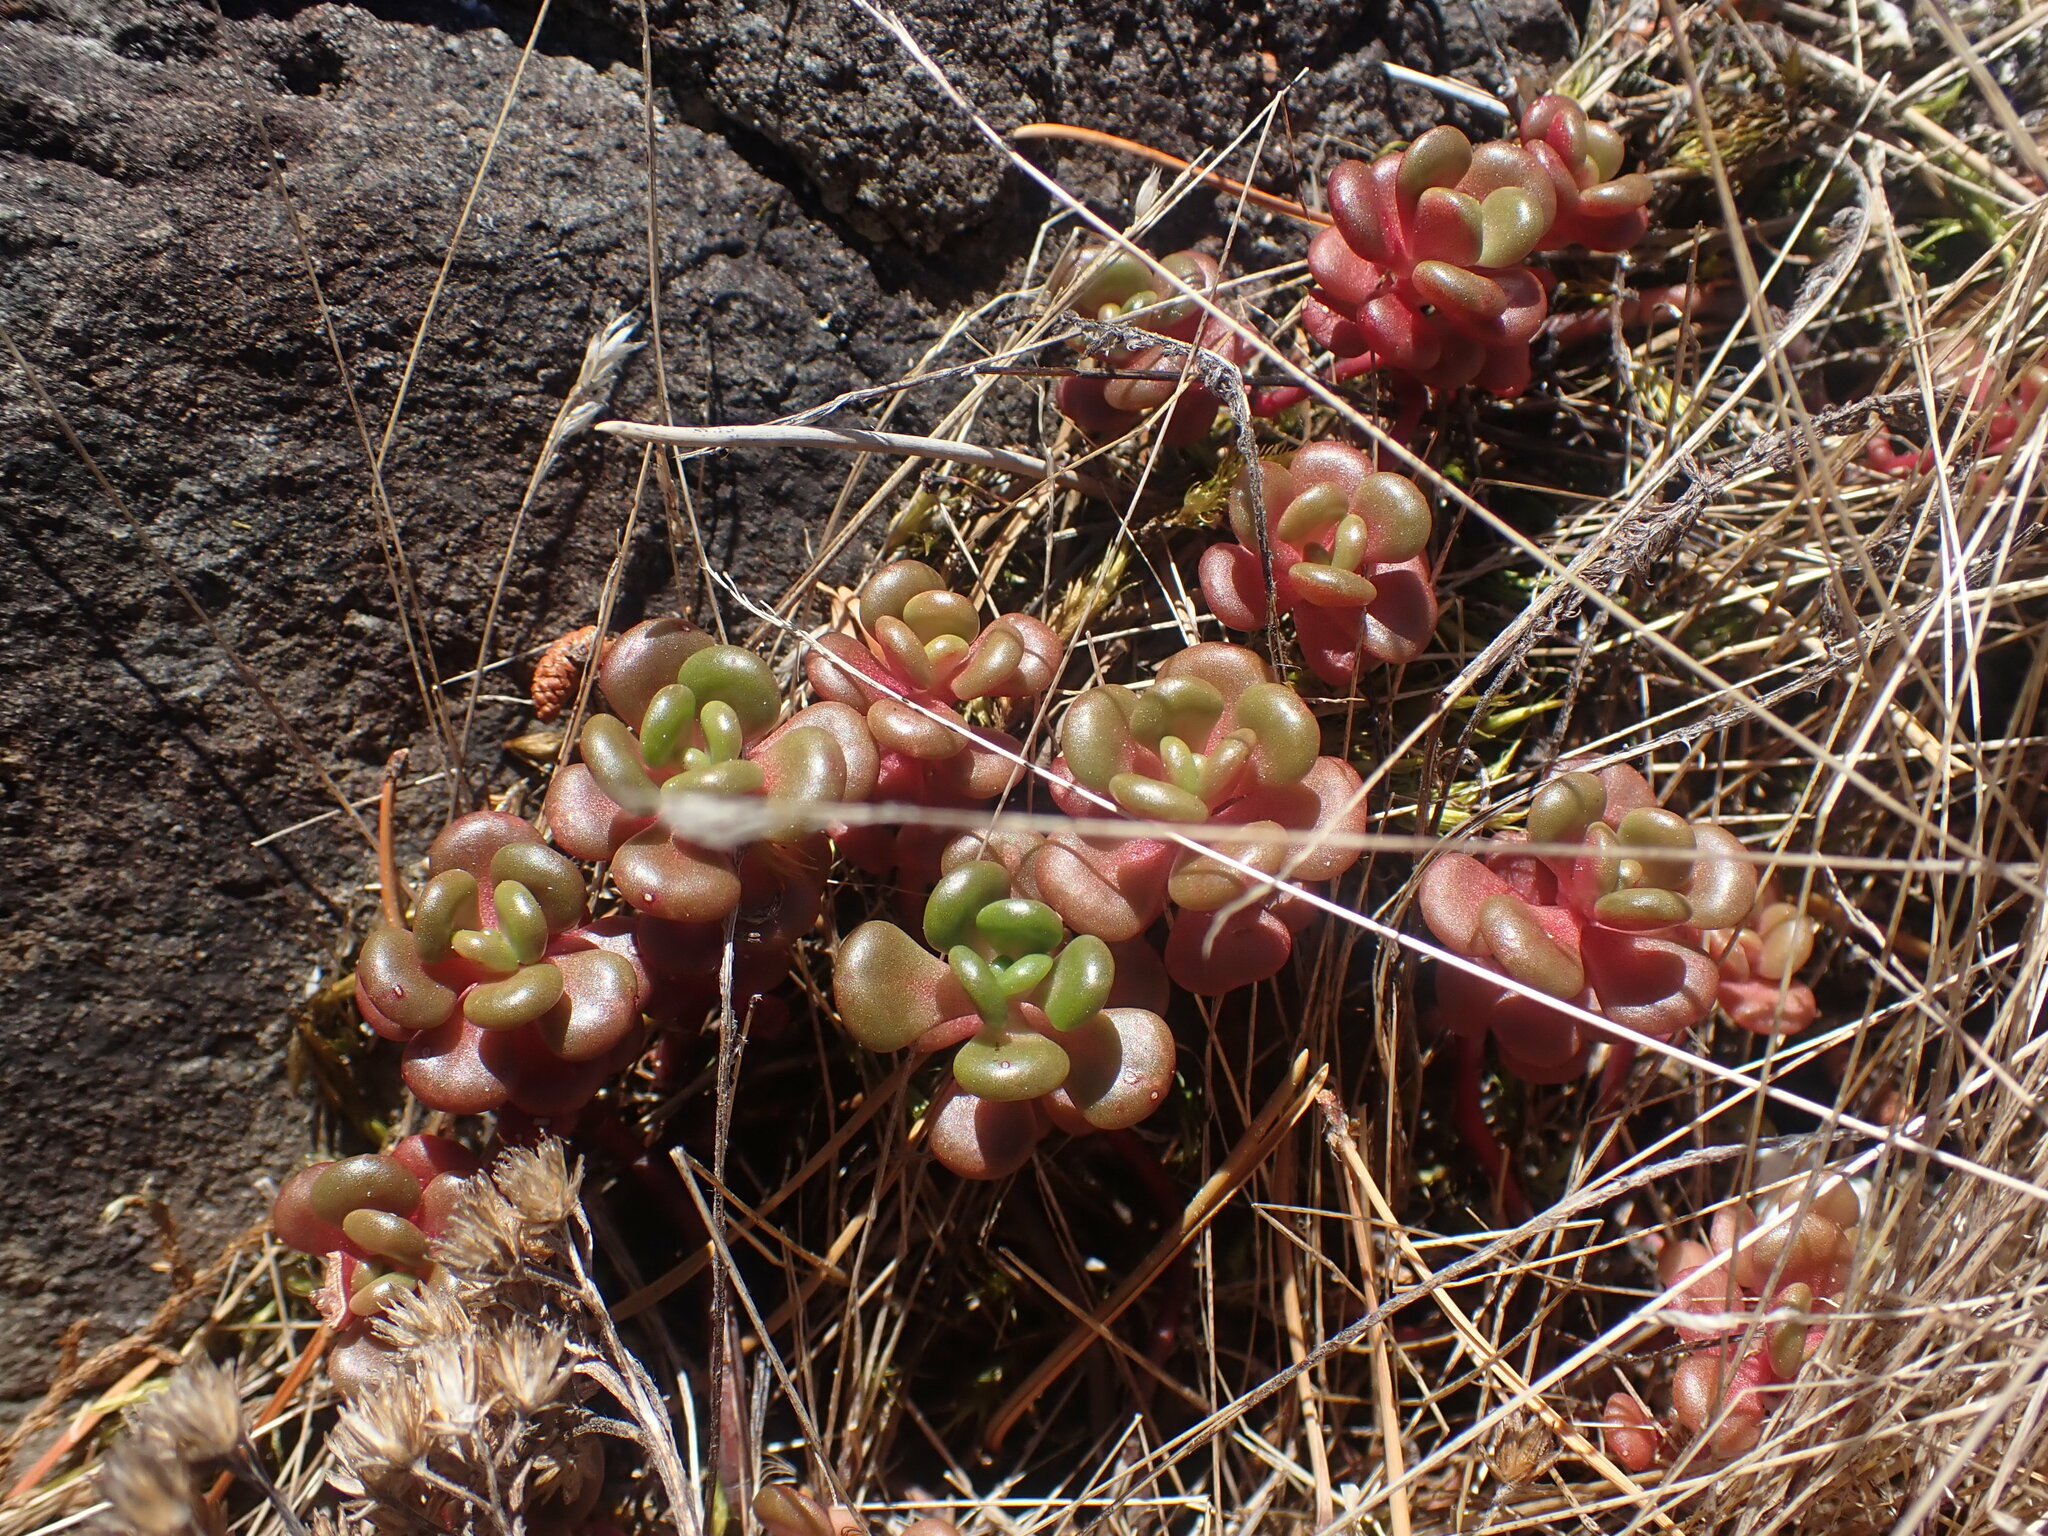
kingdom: Plantae
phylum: Tracheophyta
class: Magnoliopsida
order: Saxifragales
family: Crassulaceae
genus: Sedum
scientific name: Sedum oreganum
